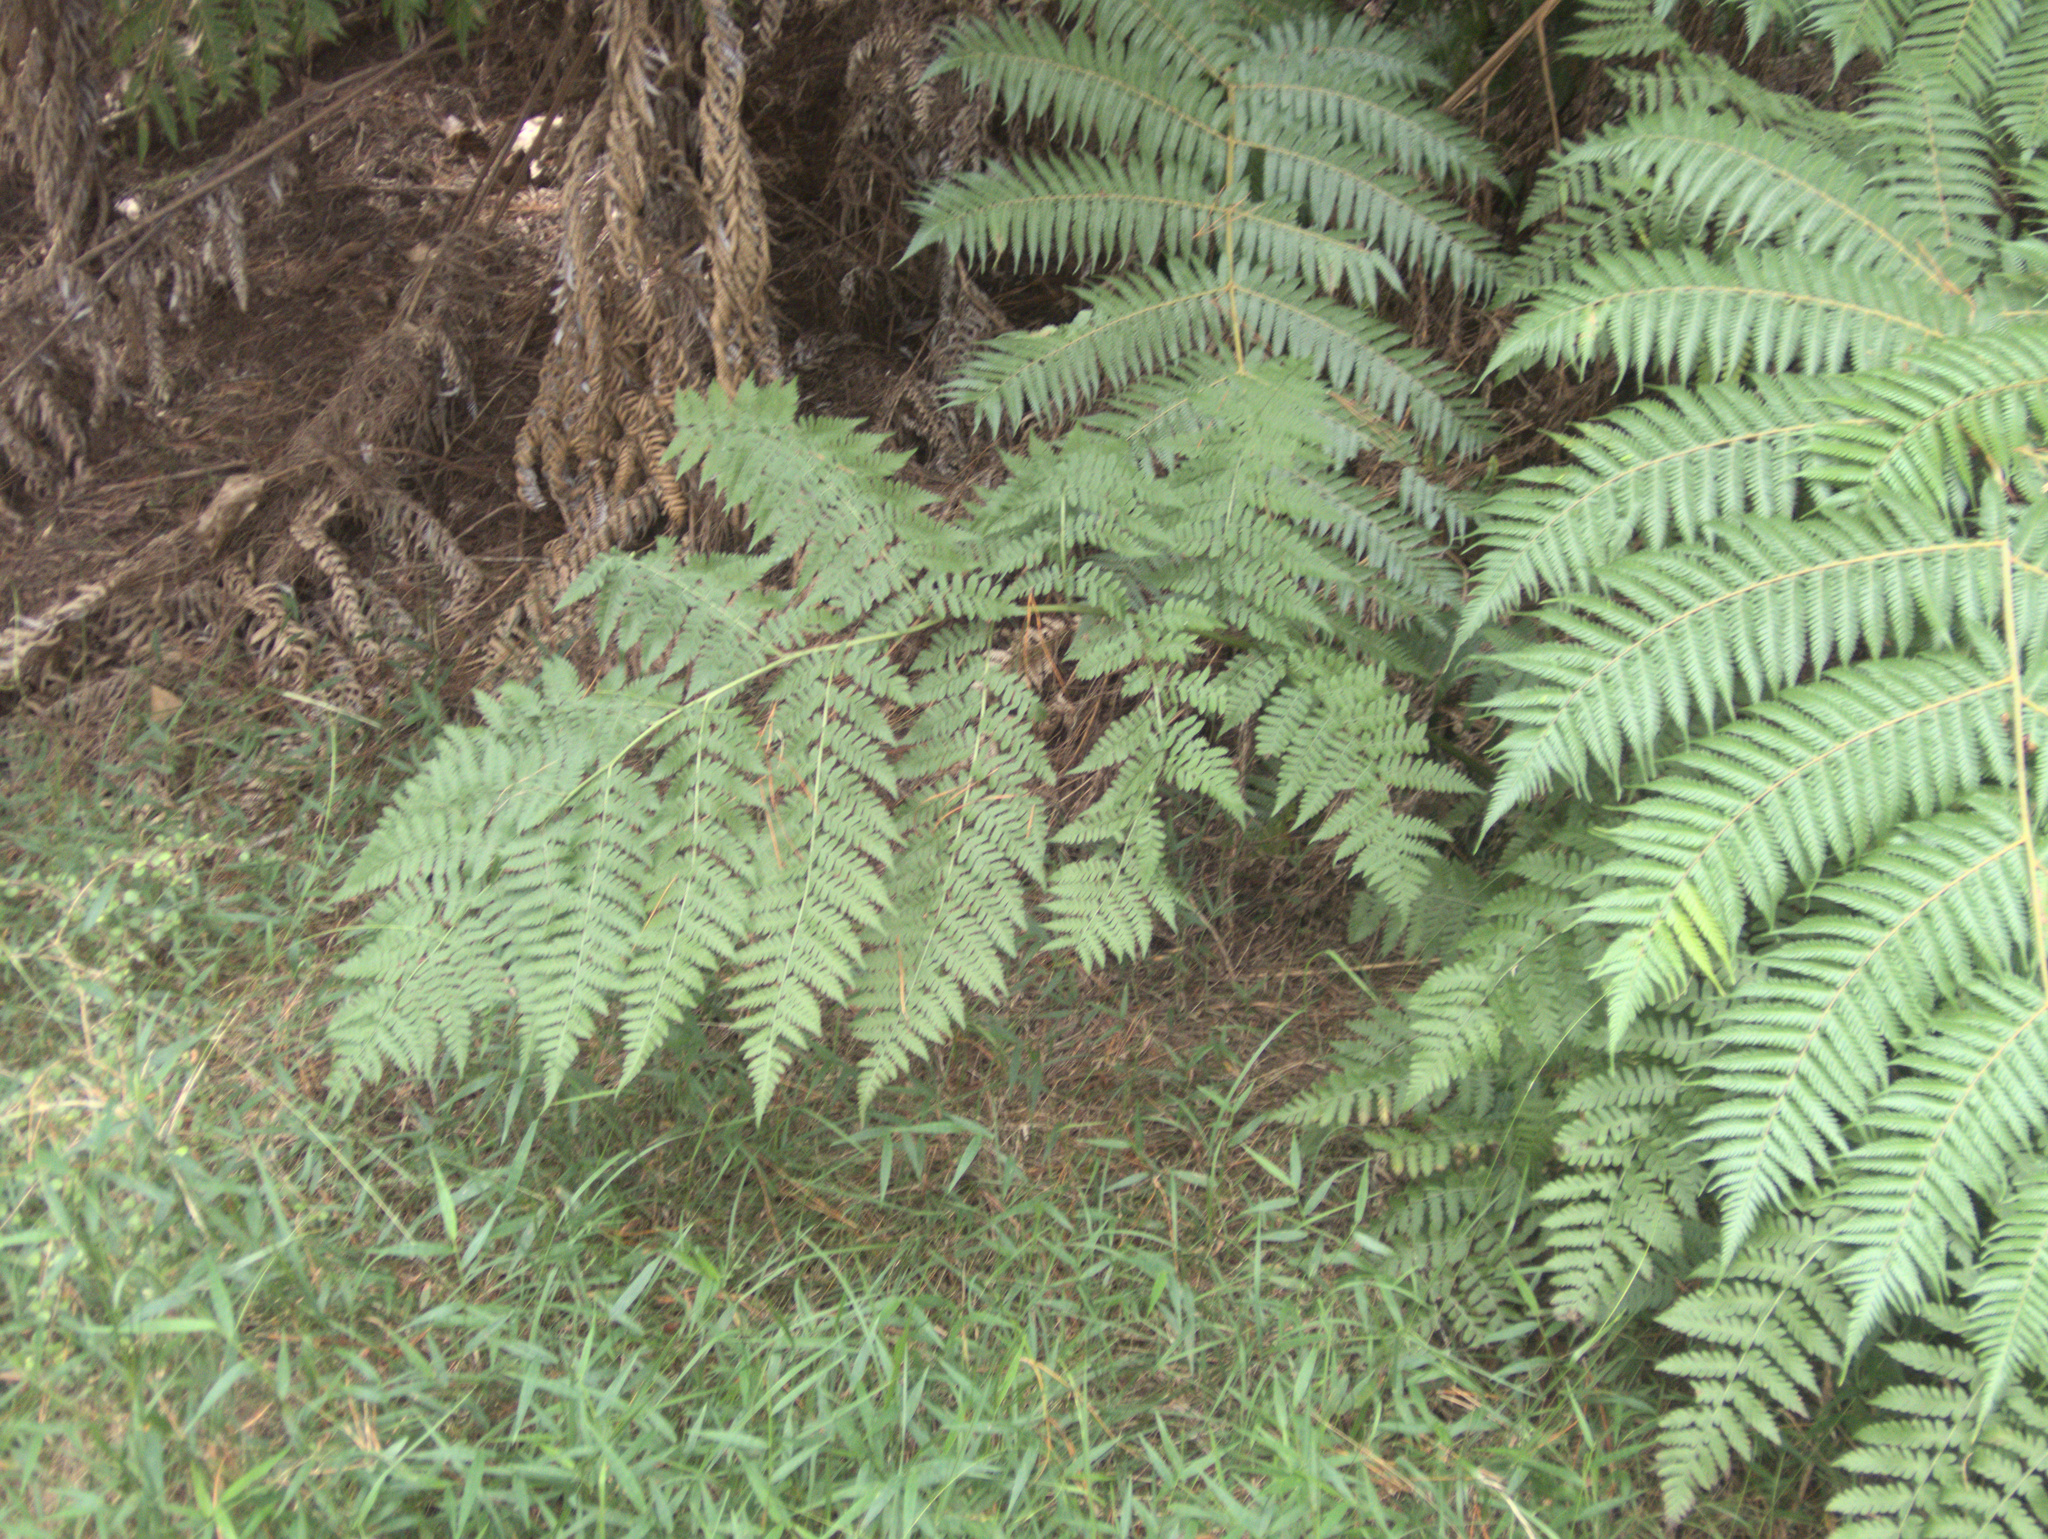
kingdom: Plantae
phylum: Tracheophyta
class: Polypodiopsida
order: Polypodiales
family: Athyriaceae
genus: Diplazium
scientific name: Diplazium australe
